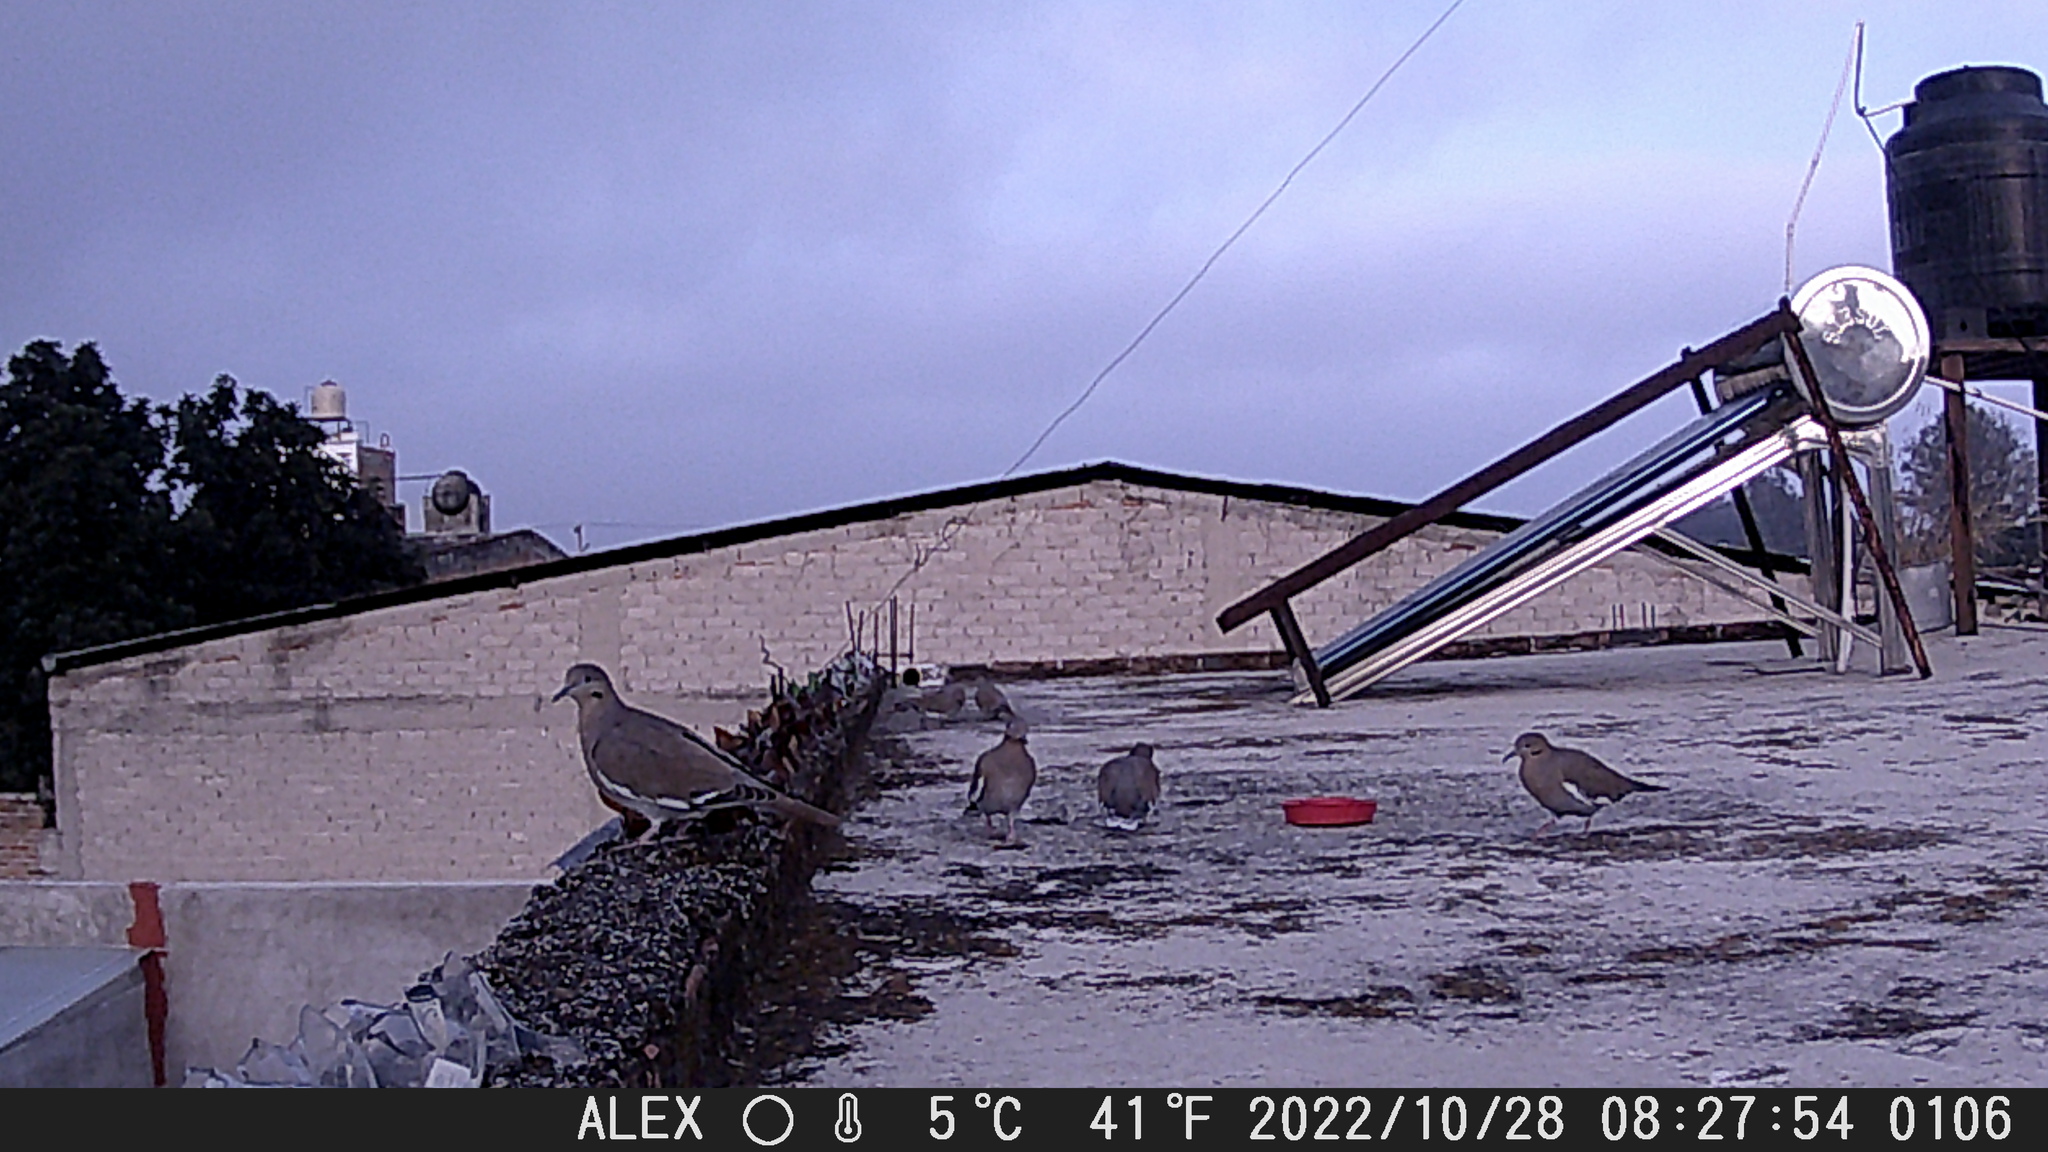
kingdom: Animalia
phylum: Chordata
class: Aves
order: Columbiformes
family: Columbidae
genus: Zenaida
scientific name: Zenaida asiatica
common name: White-winged dove
